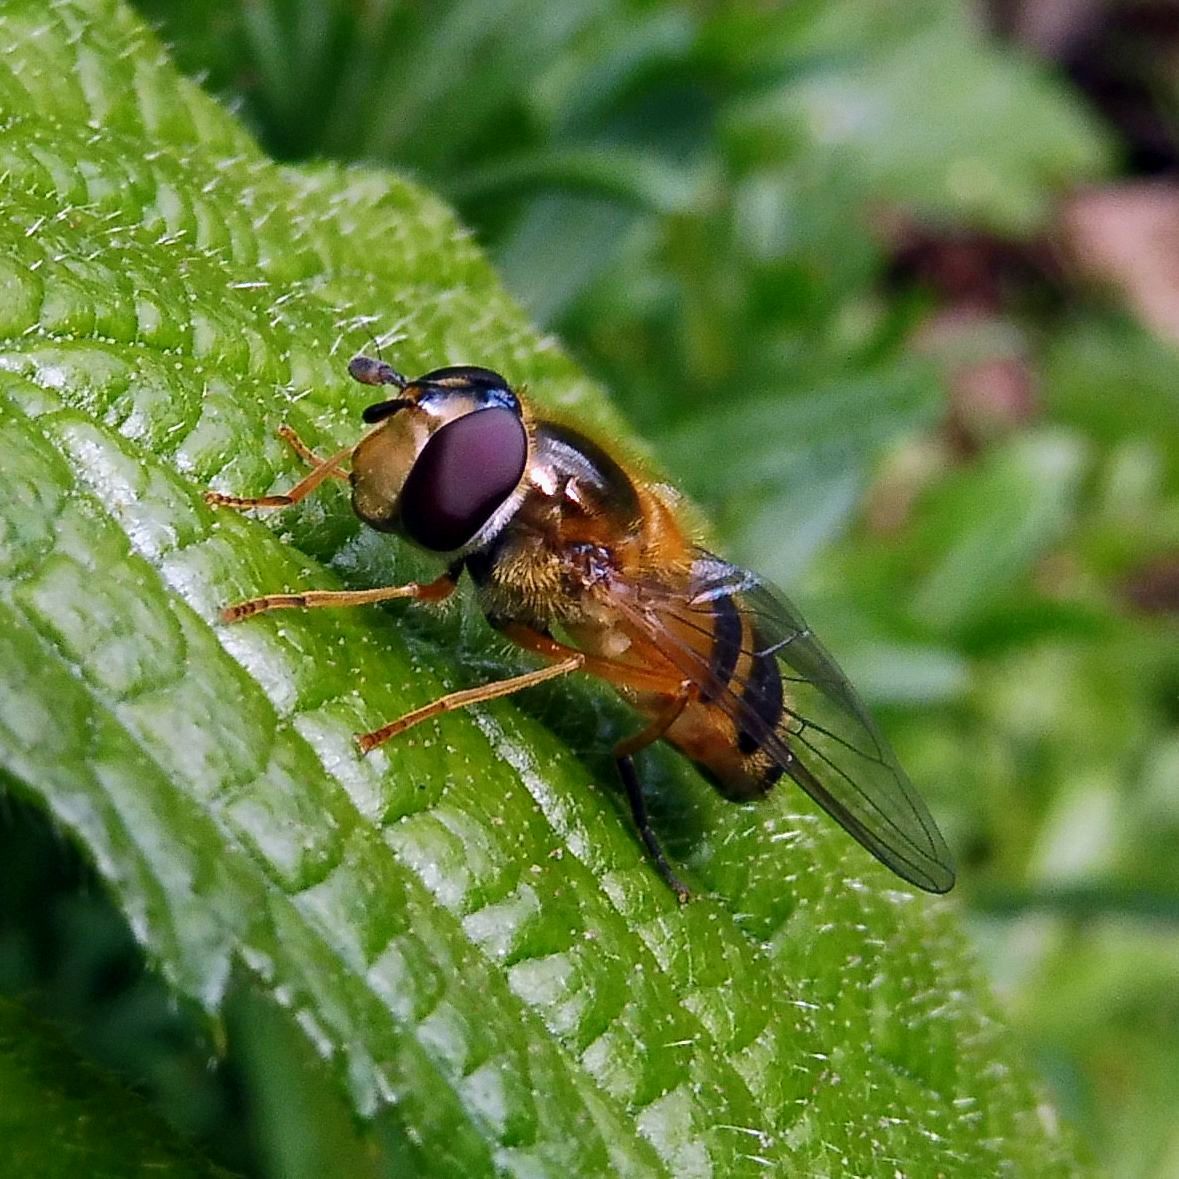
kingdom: Animalia
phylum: Arthropoda
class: Insecta
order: Diptera
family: Syrphidae
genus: Epistrophe
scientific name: Epistrophe eligans
